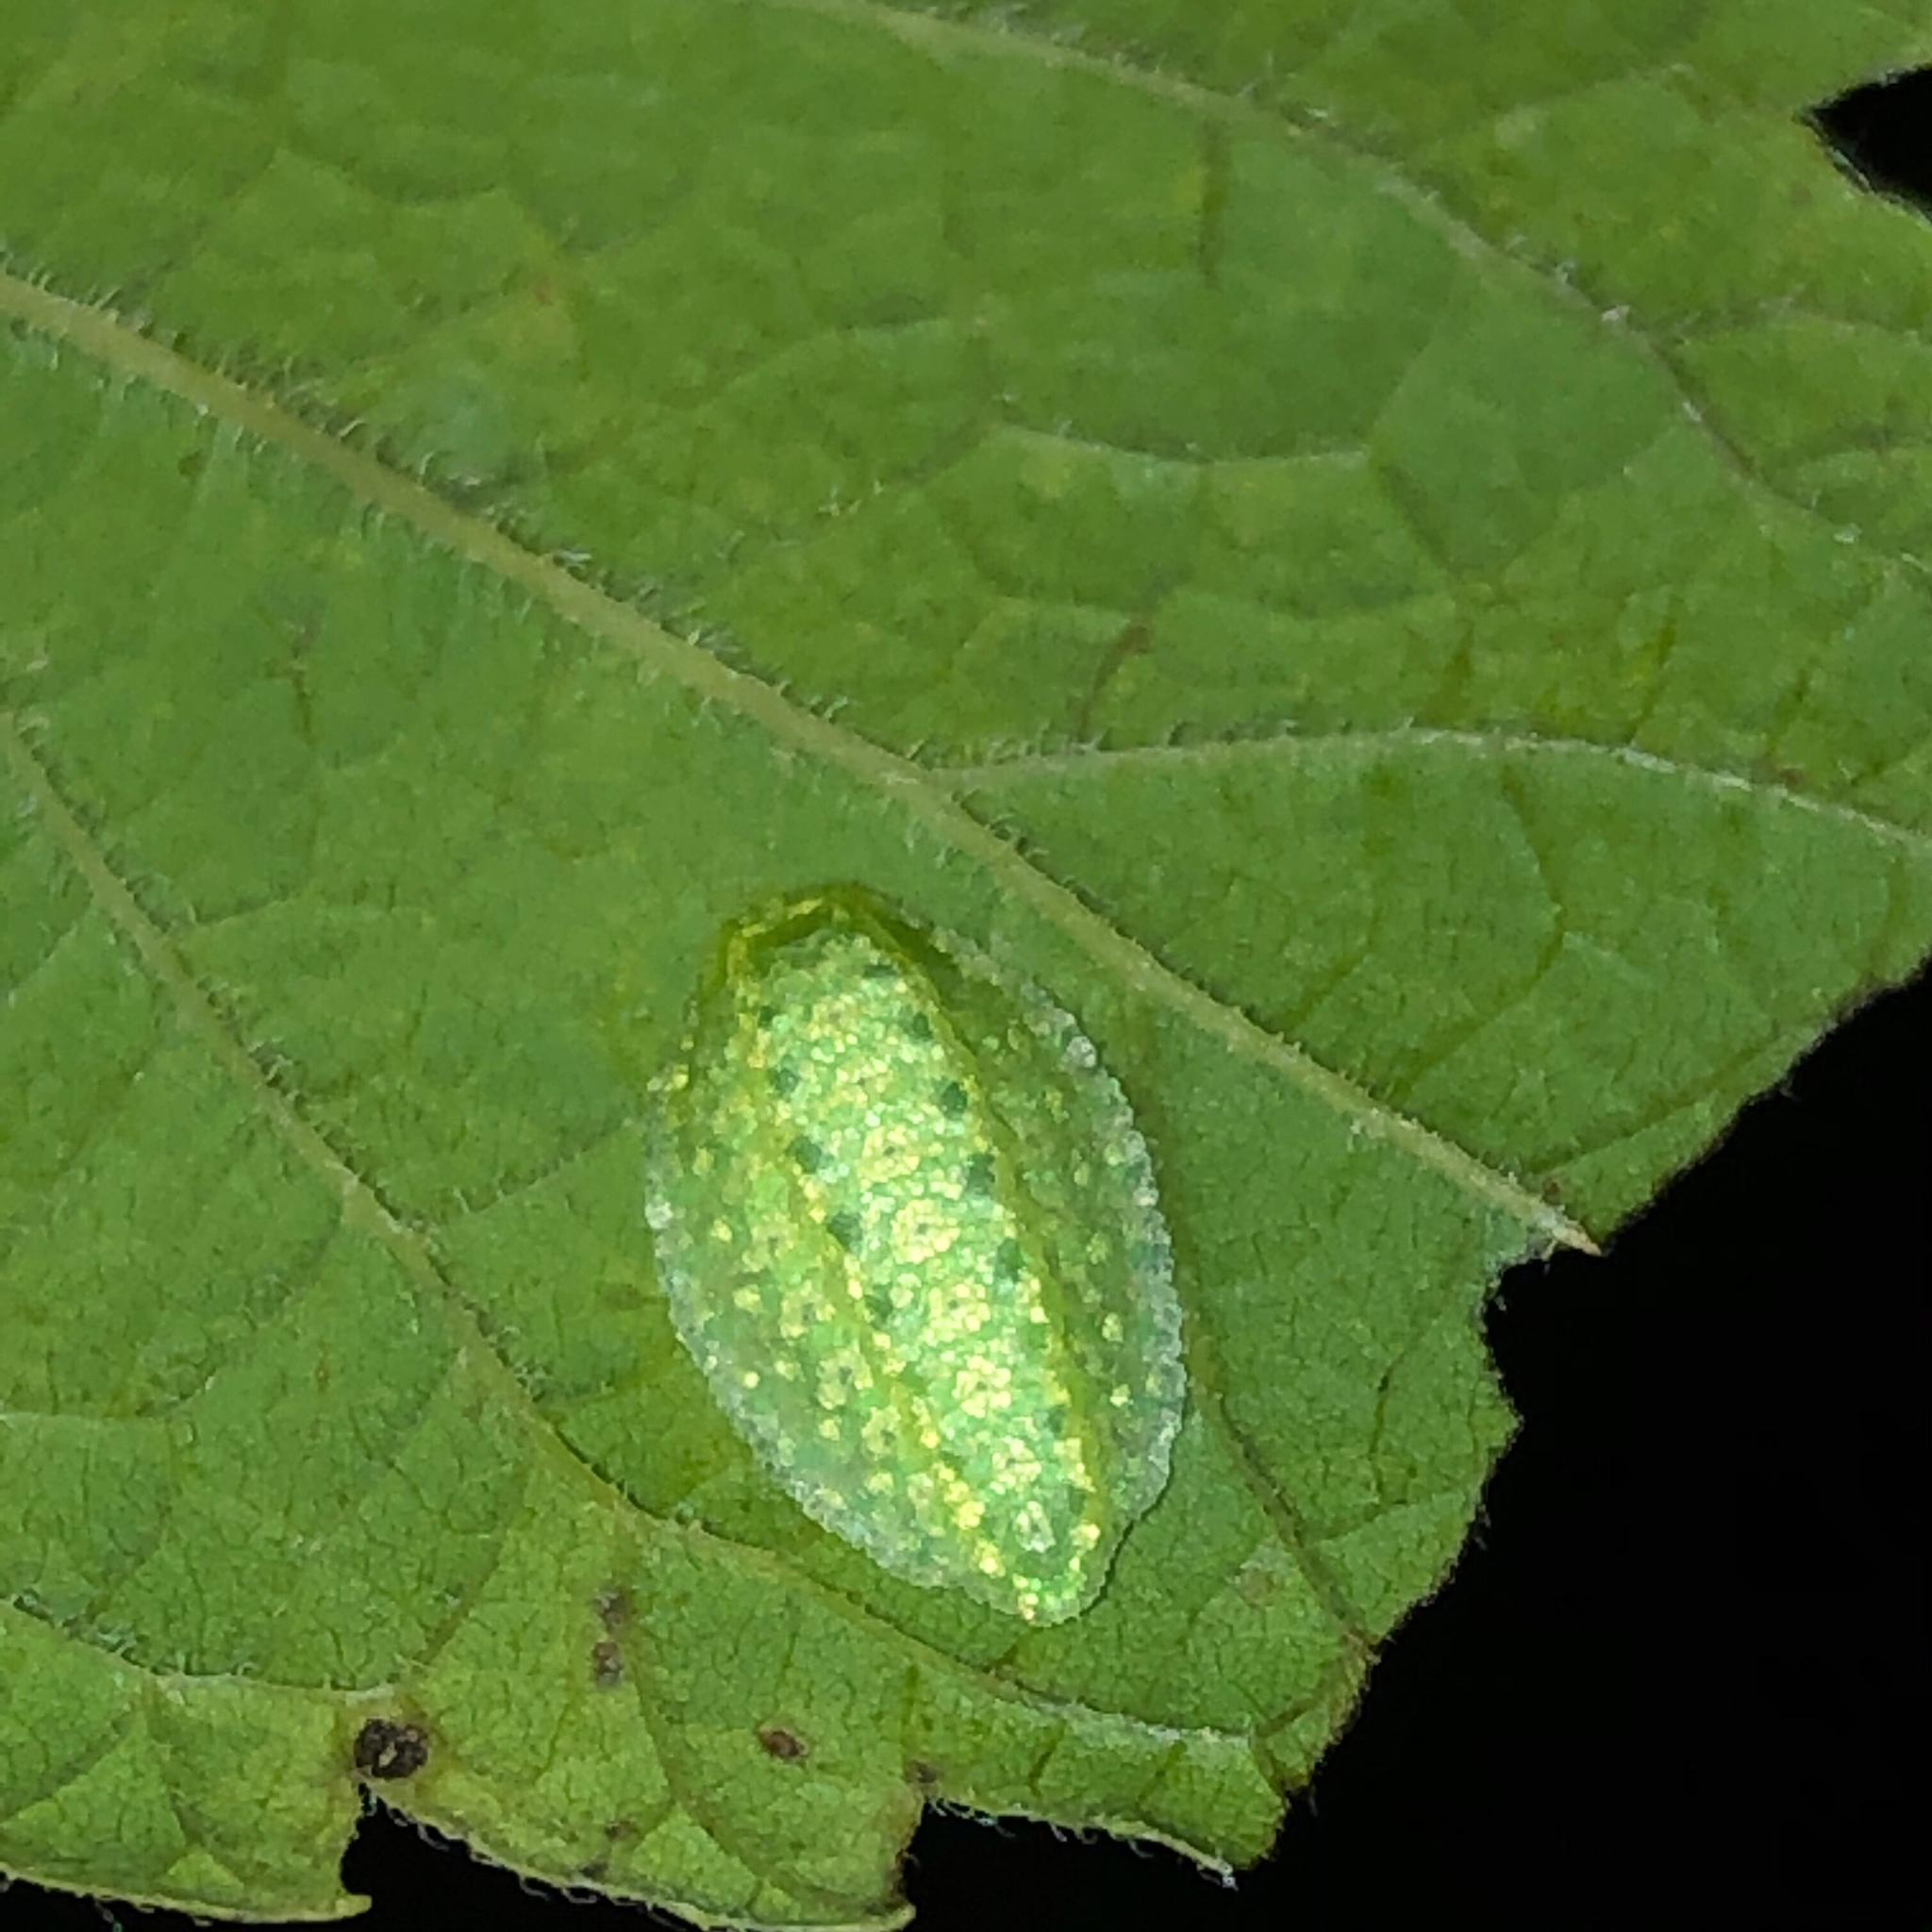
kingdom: Animalia
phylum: Arthropoda
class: Insecta
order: Lepidoptera
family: Limacodidae
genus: Lithacodes
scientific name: Lithacodes fasciola
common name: Yellow-shouldered slug moth
